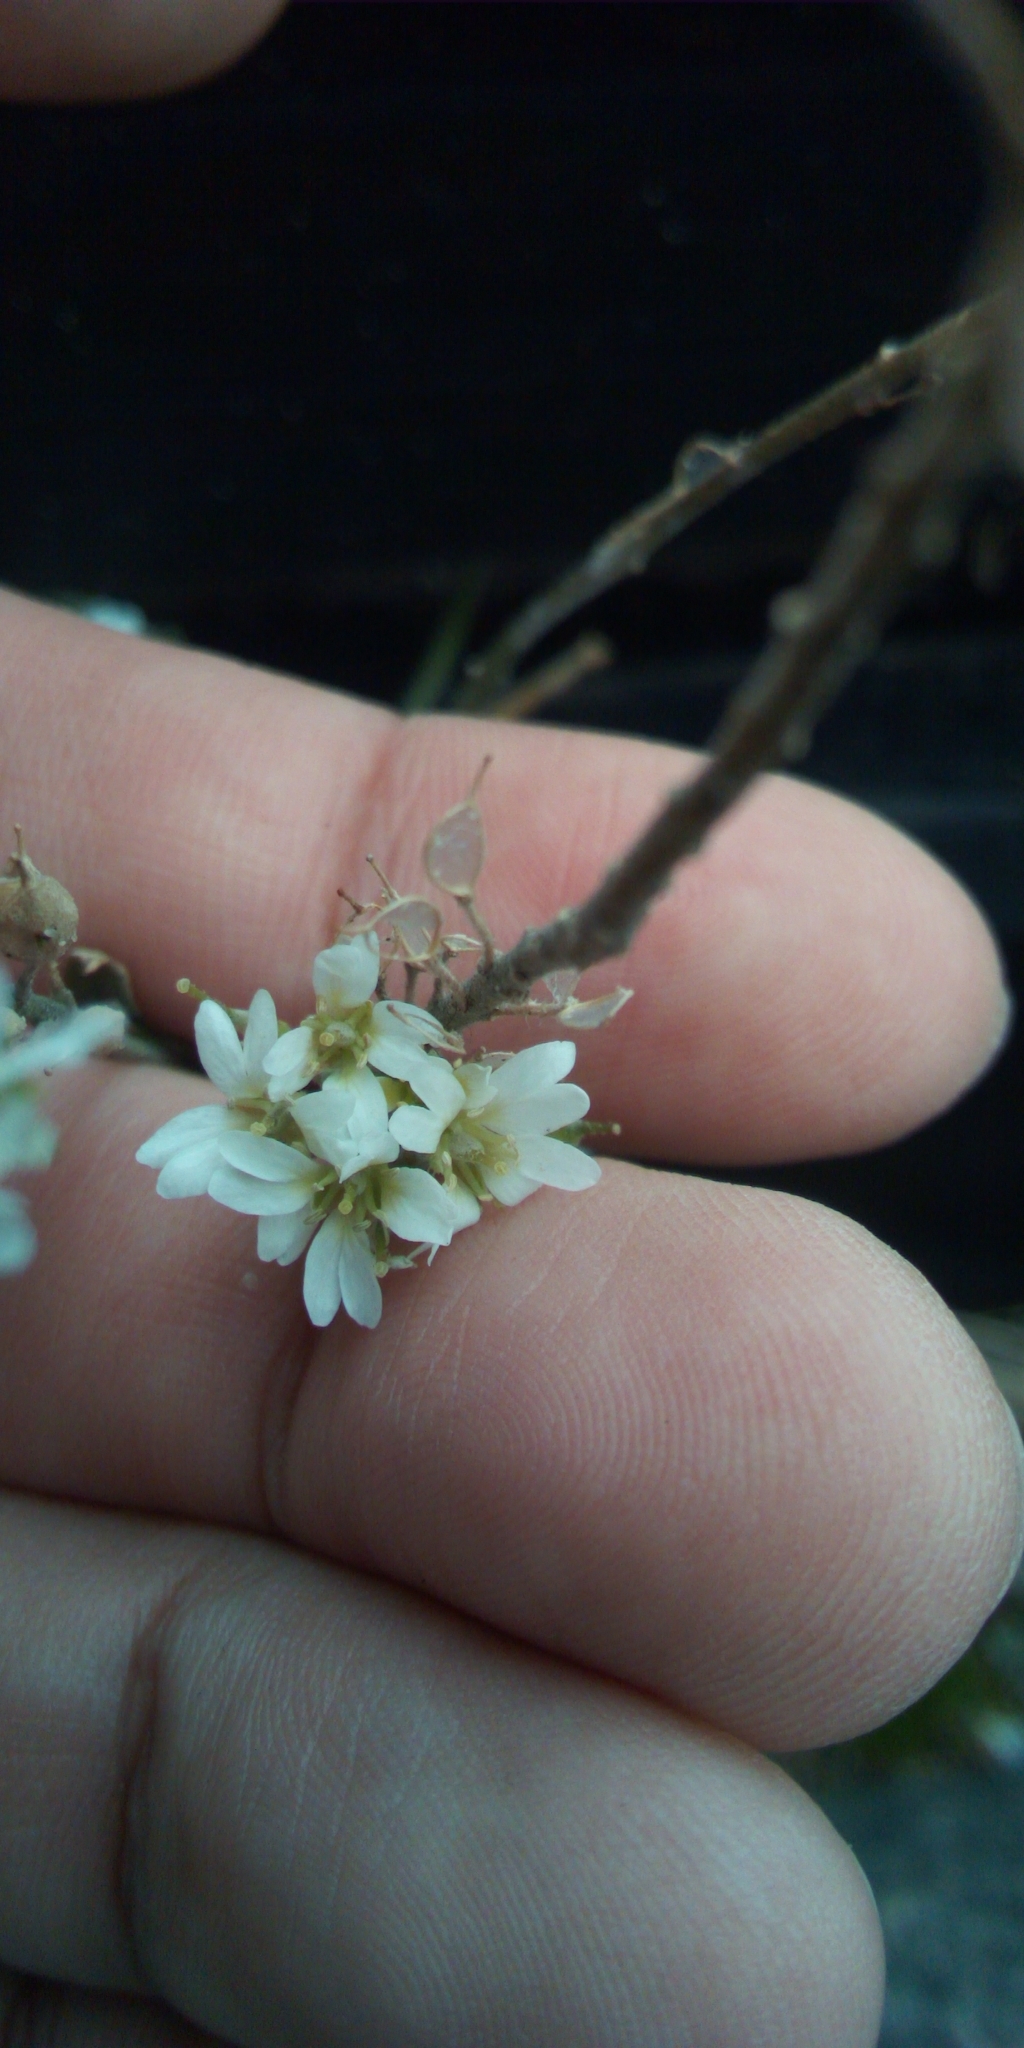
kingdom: Plantae
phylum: Tracheophyta
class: Magnoliopsida
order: Brassicales
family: Brassicaceae
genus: Berteroa
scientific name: Berteroa incana
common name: Hoary alison
